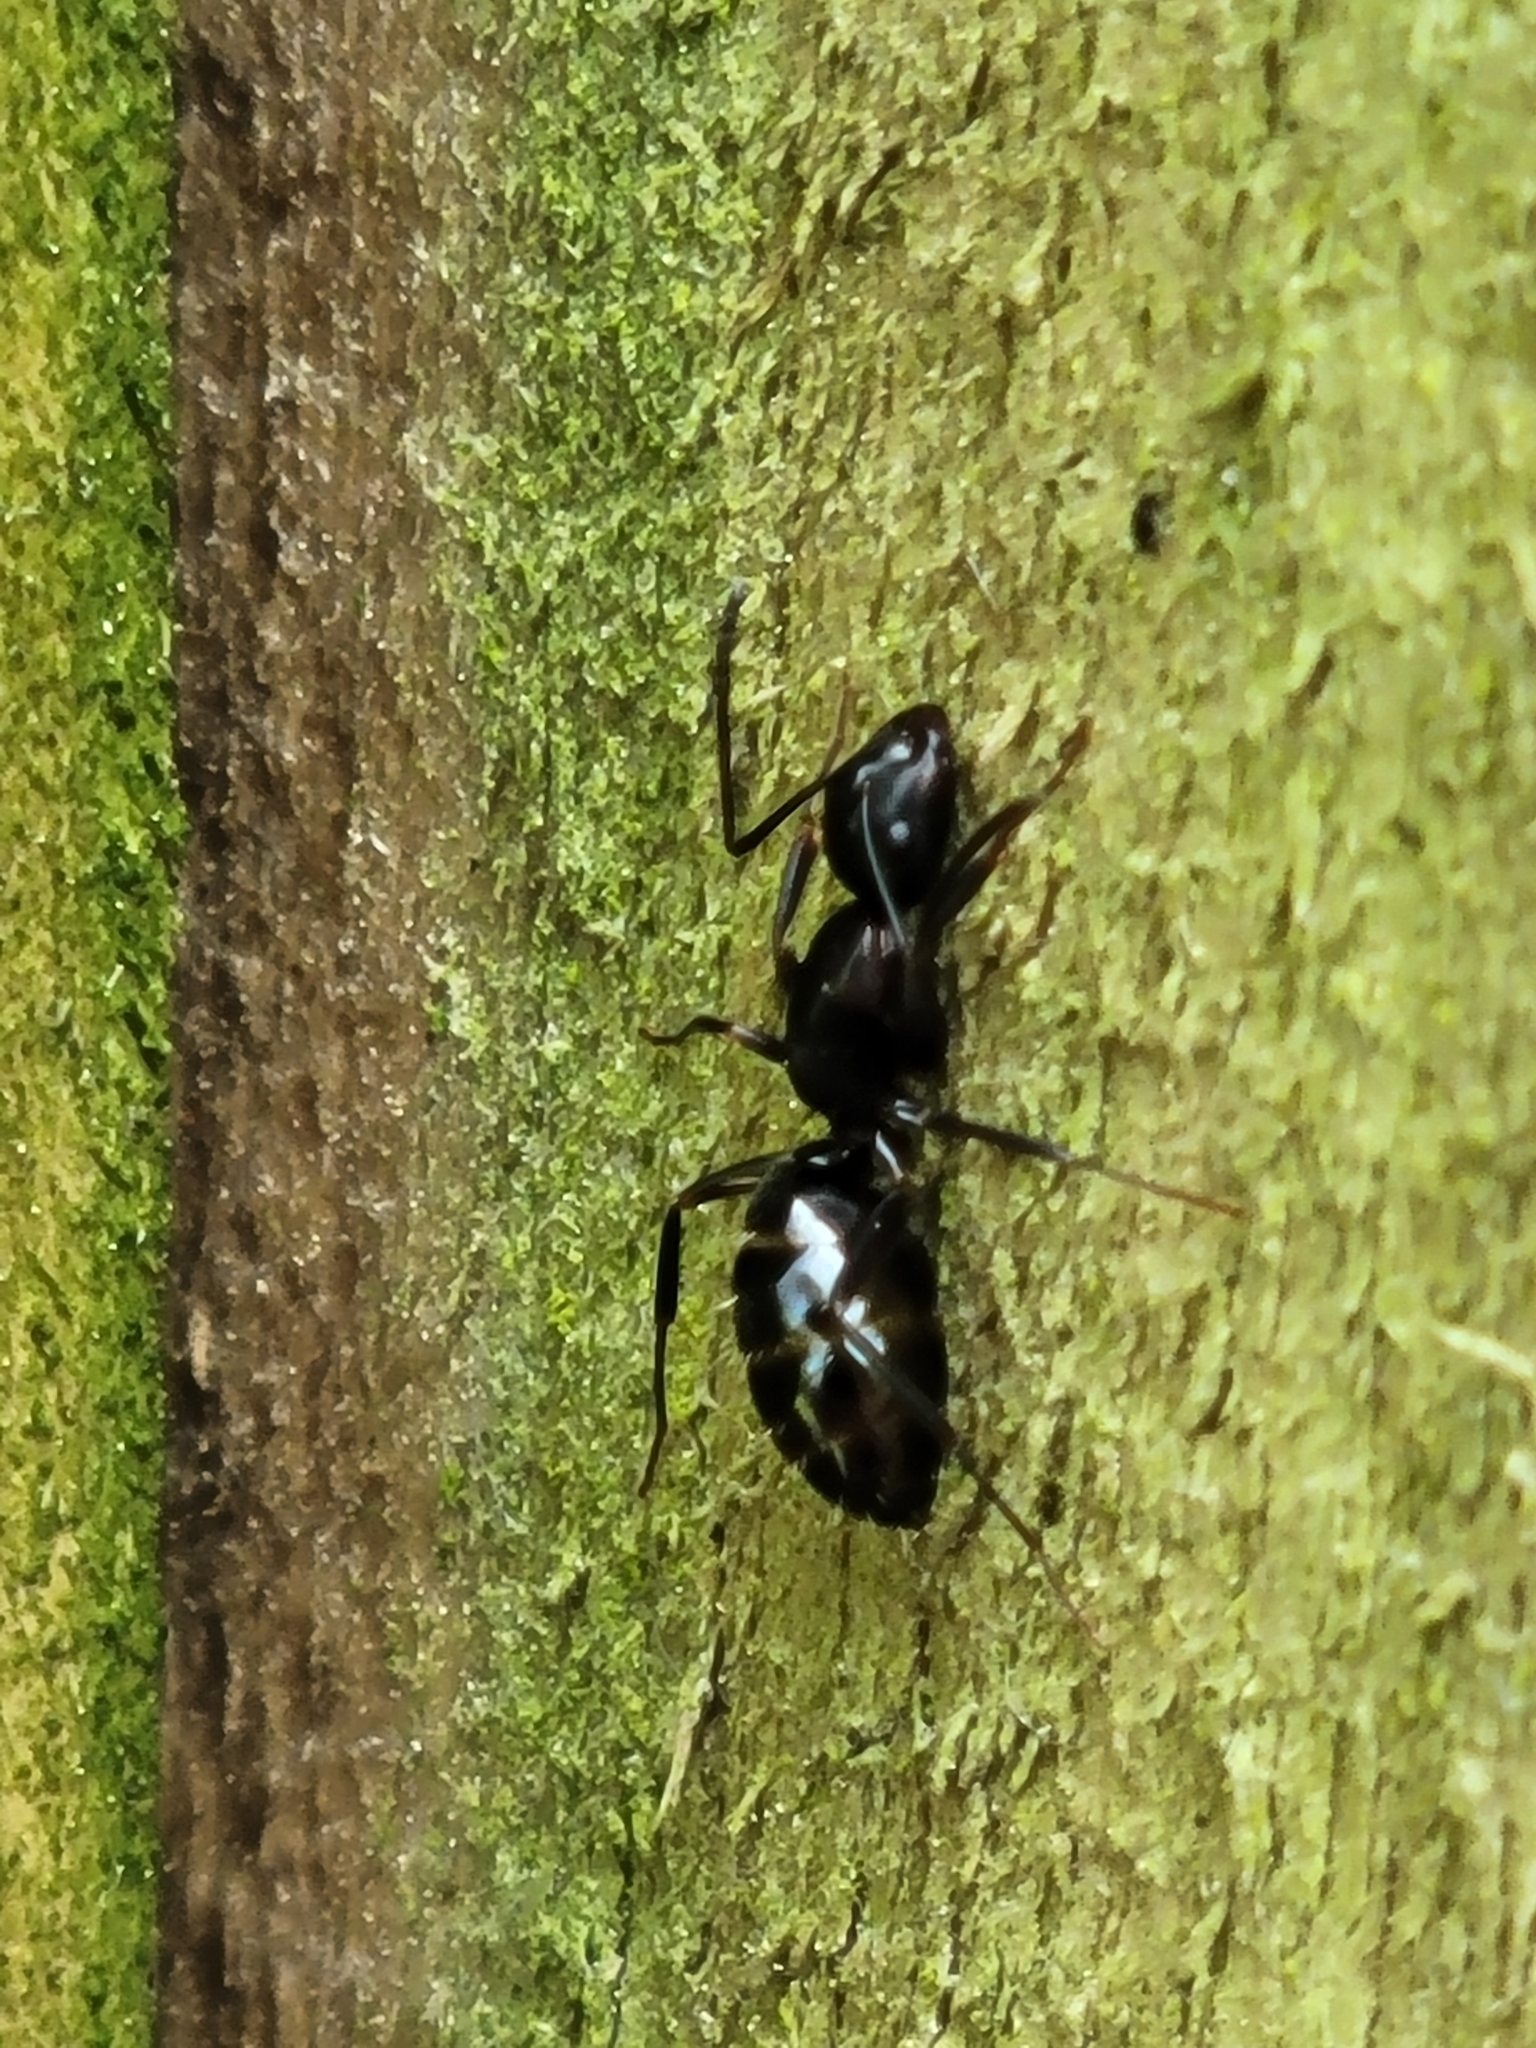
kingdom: Animalia
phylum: Arthropoda
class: Insecta
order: Hymenoptera
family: Formicidae
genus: Camponotus
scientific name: Camponotus nearcticus
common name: Smaller carpenter ant
